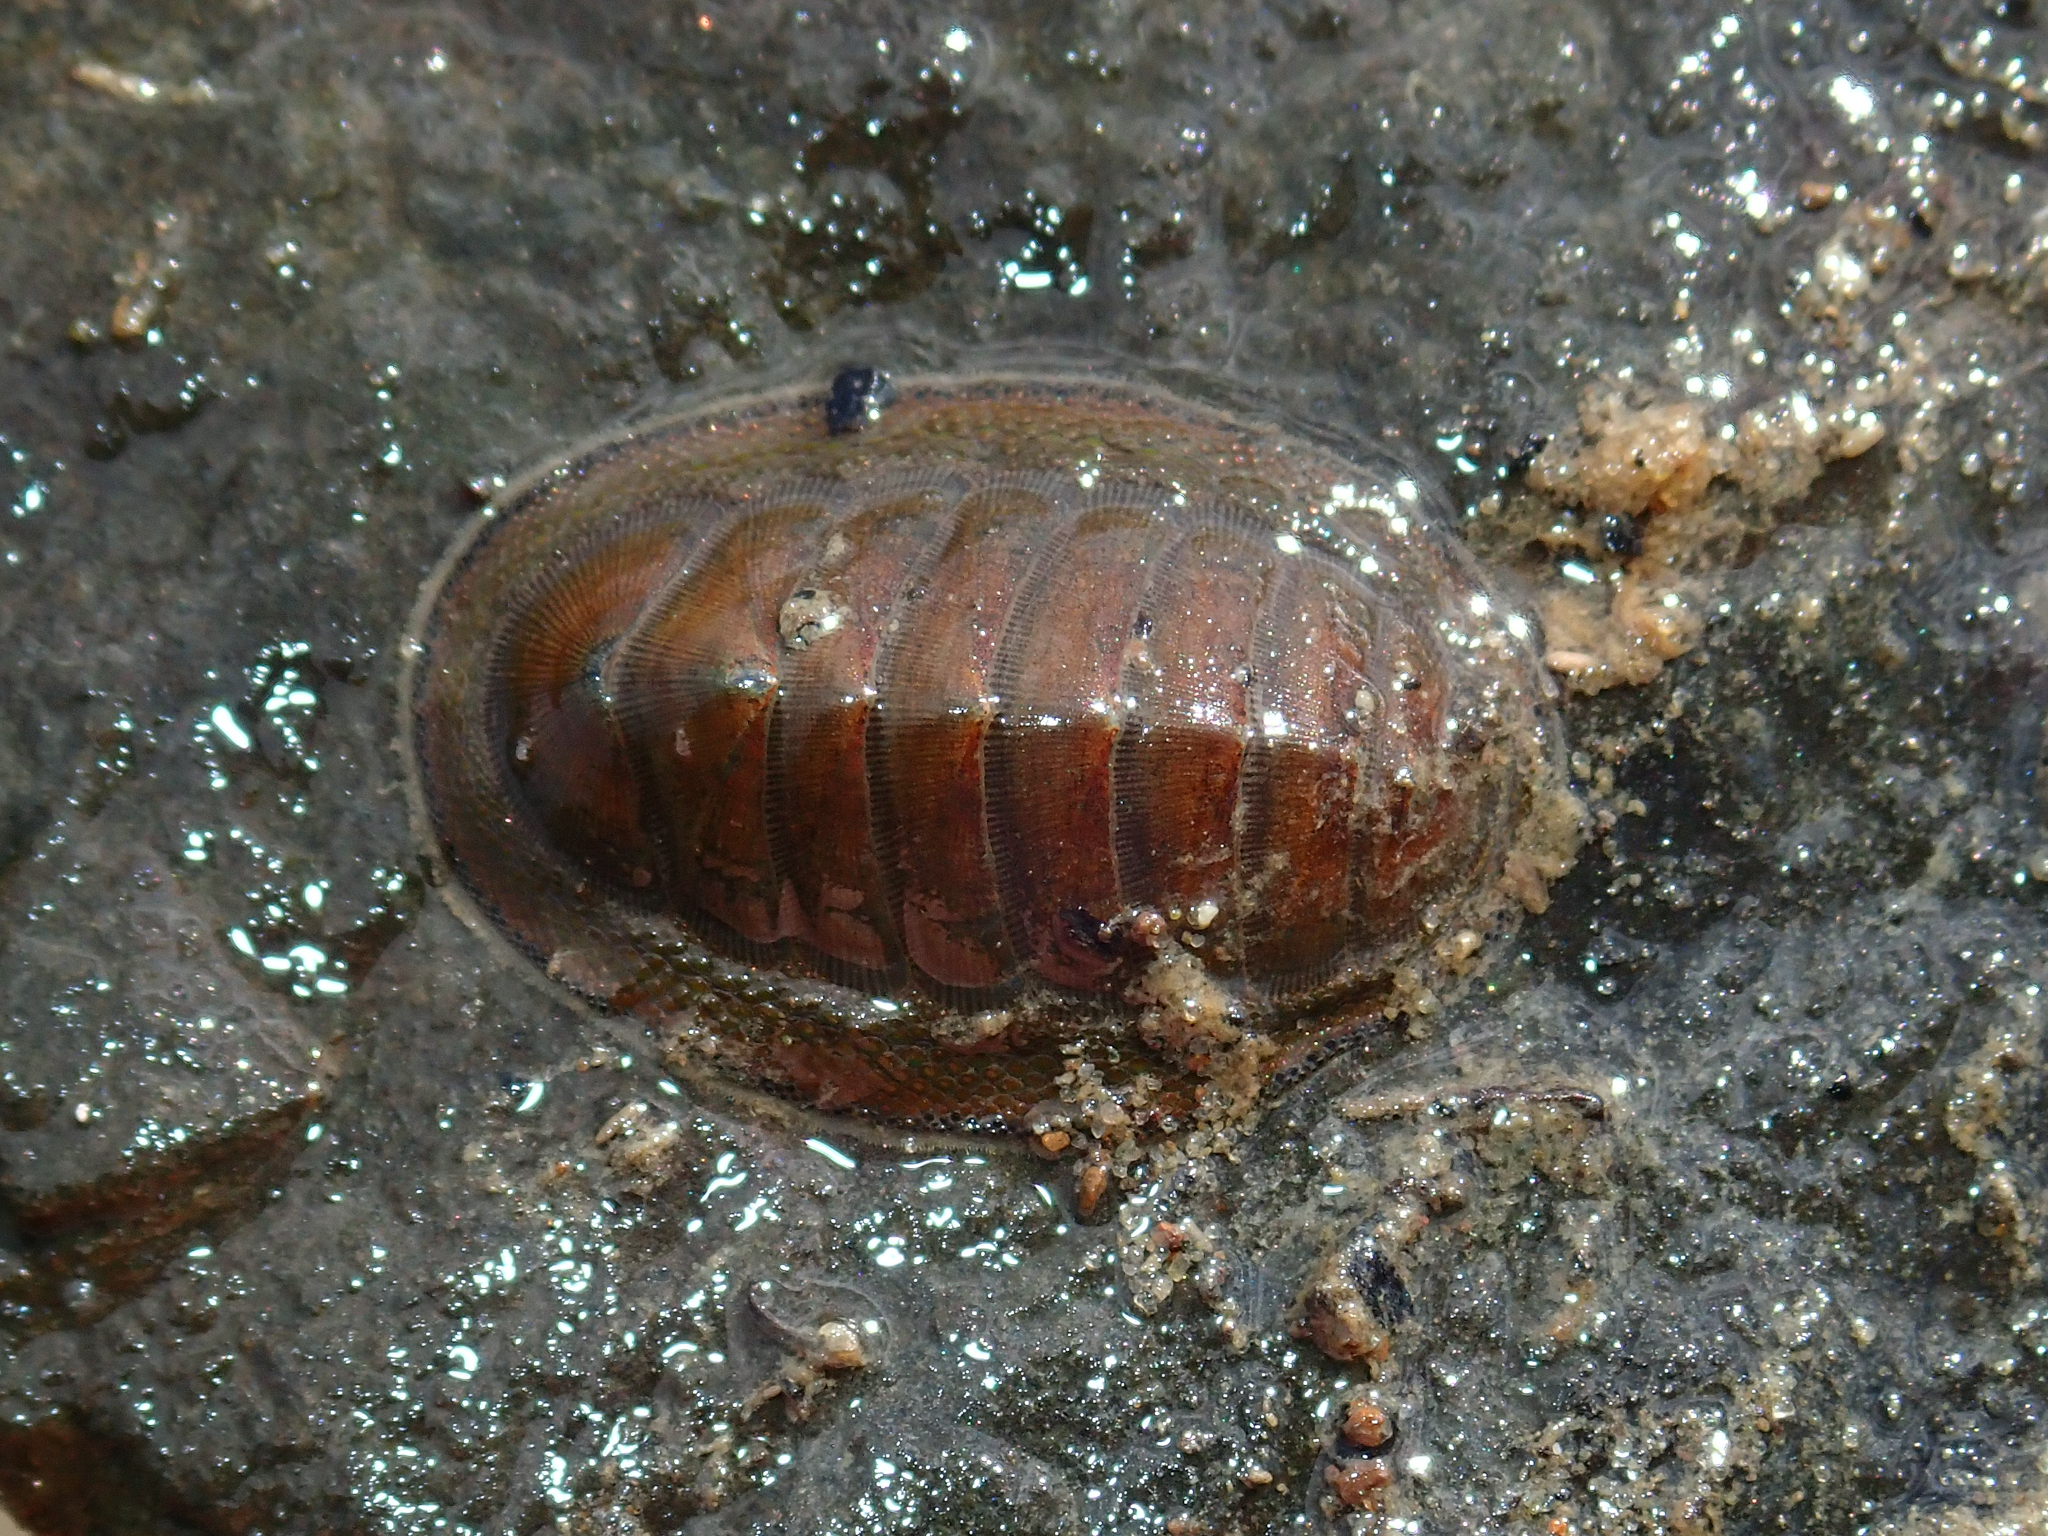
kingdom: Animalia
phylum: Mollusca
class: Polyplacophora
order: Chitonida
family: Chitonidae
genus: Chiton
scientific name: Chiton glaucus
